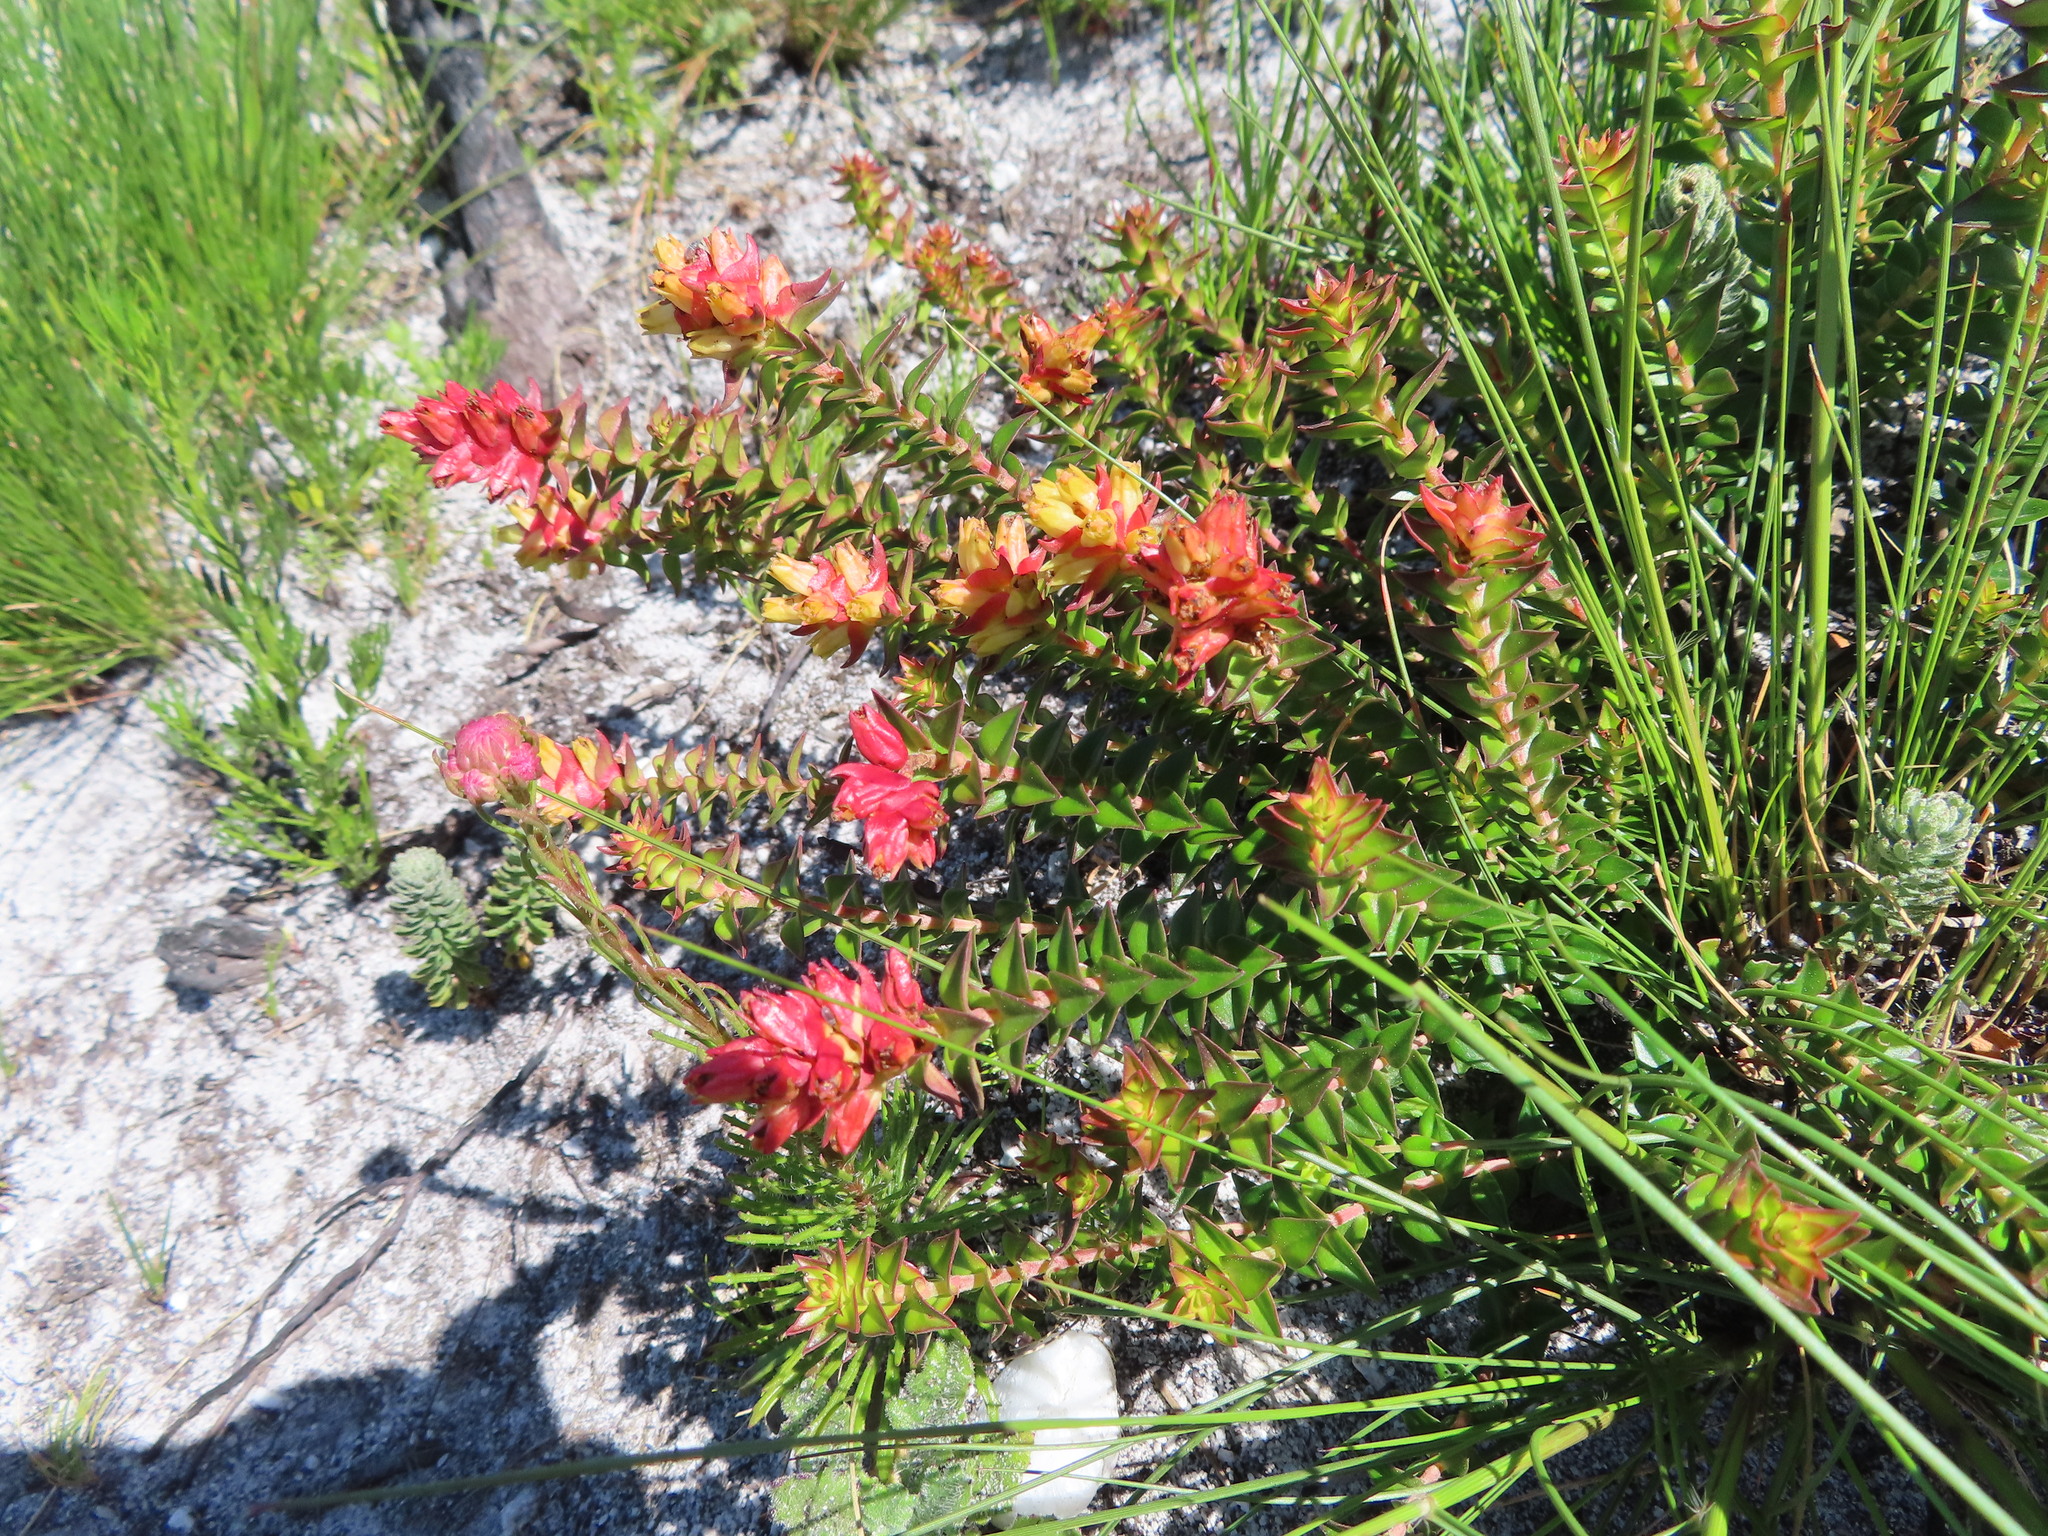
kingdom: Plantae
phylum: Tracheophyta
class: Magnoliopsida
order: Myrtales
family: Penaeaceae
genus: Penaea
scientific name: Penaea mucronata
